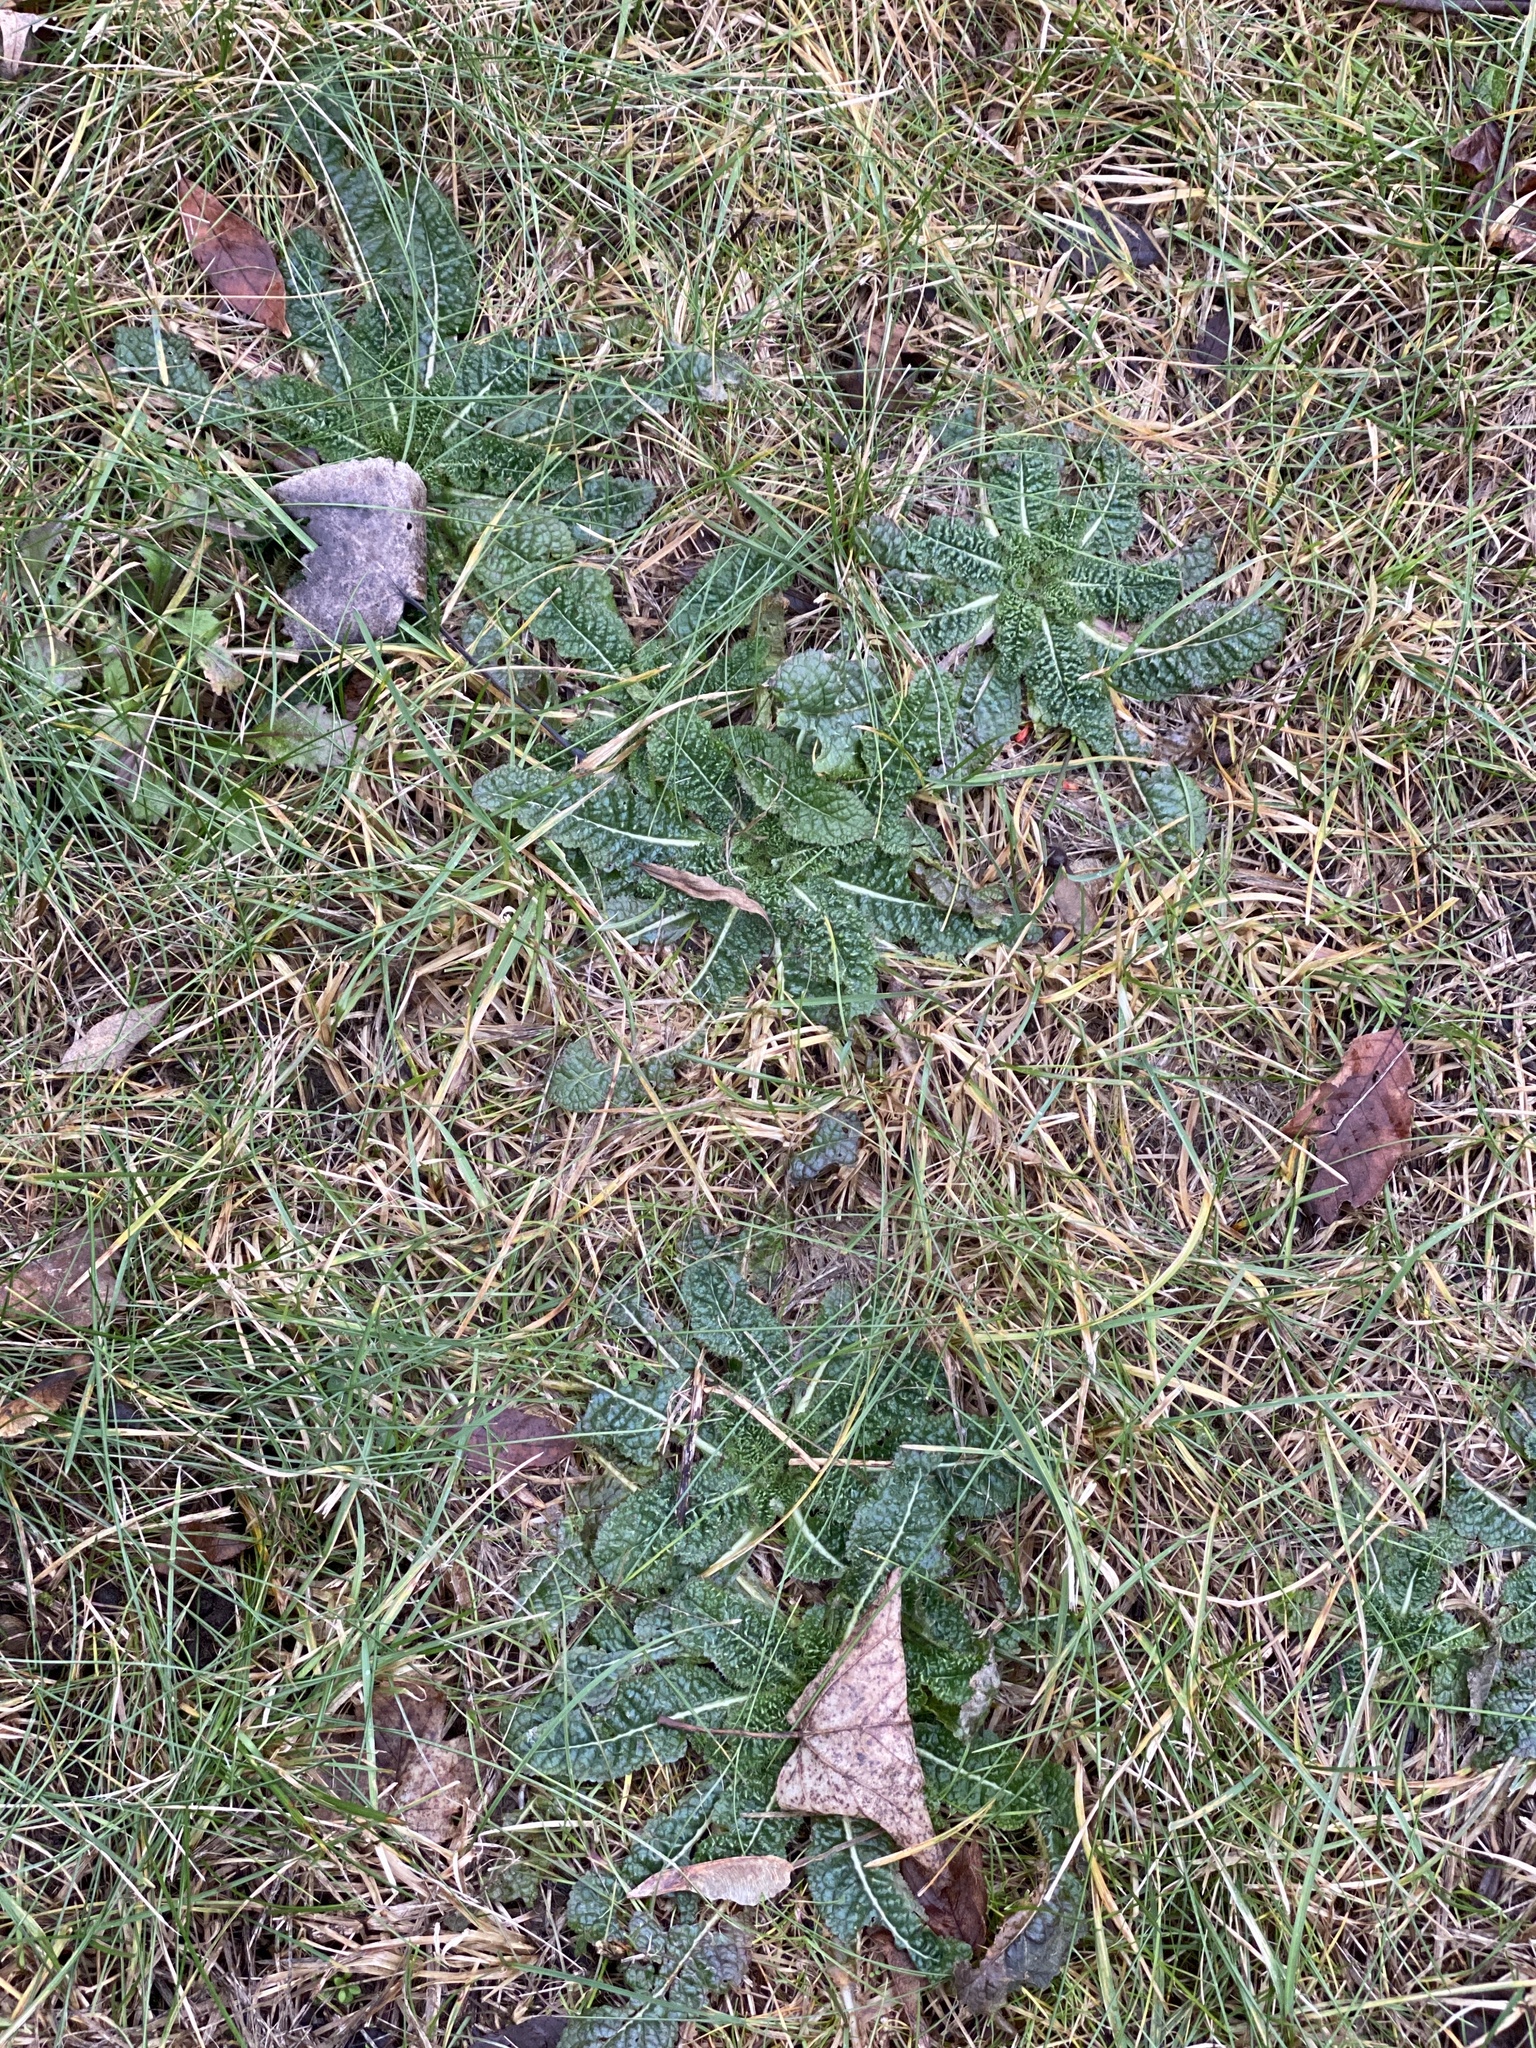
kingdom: Plantae
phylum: Tracheophyta
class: Magnoliopsida
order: Dipsacales
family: Caprifoliaceae
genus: Dipsacus
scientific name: Dipsacus fullonum
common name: Teasel
